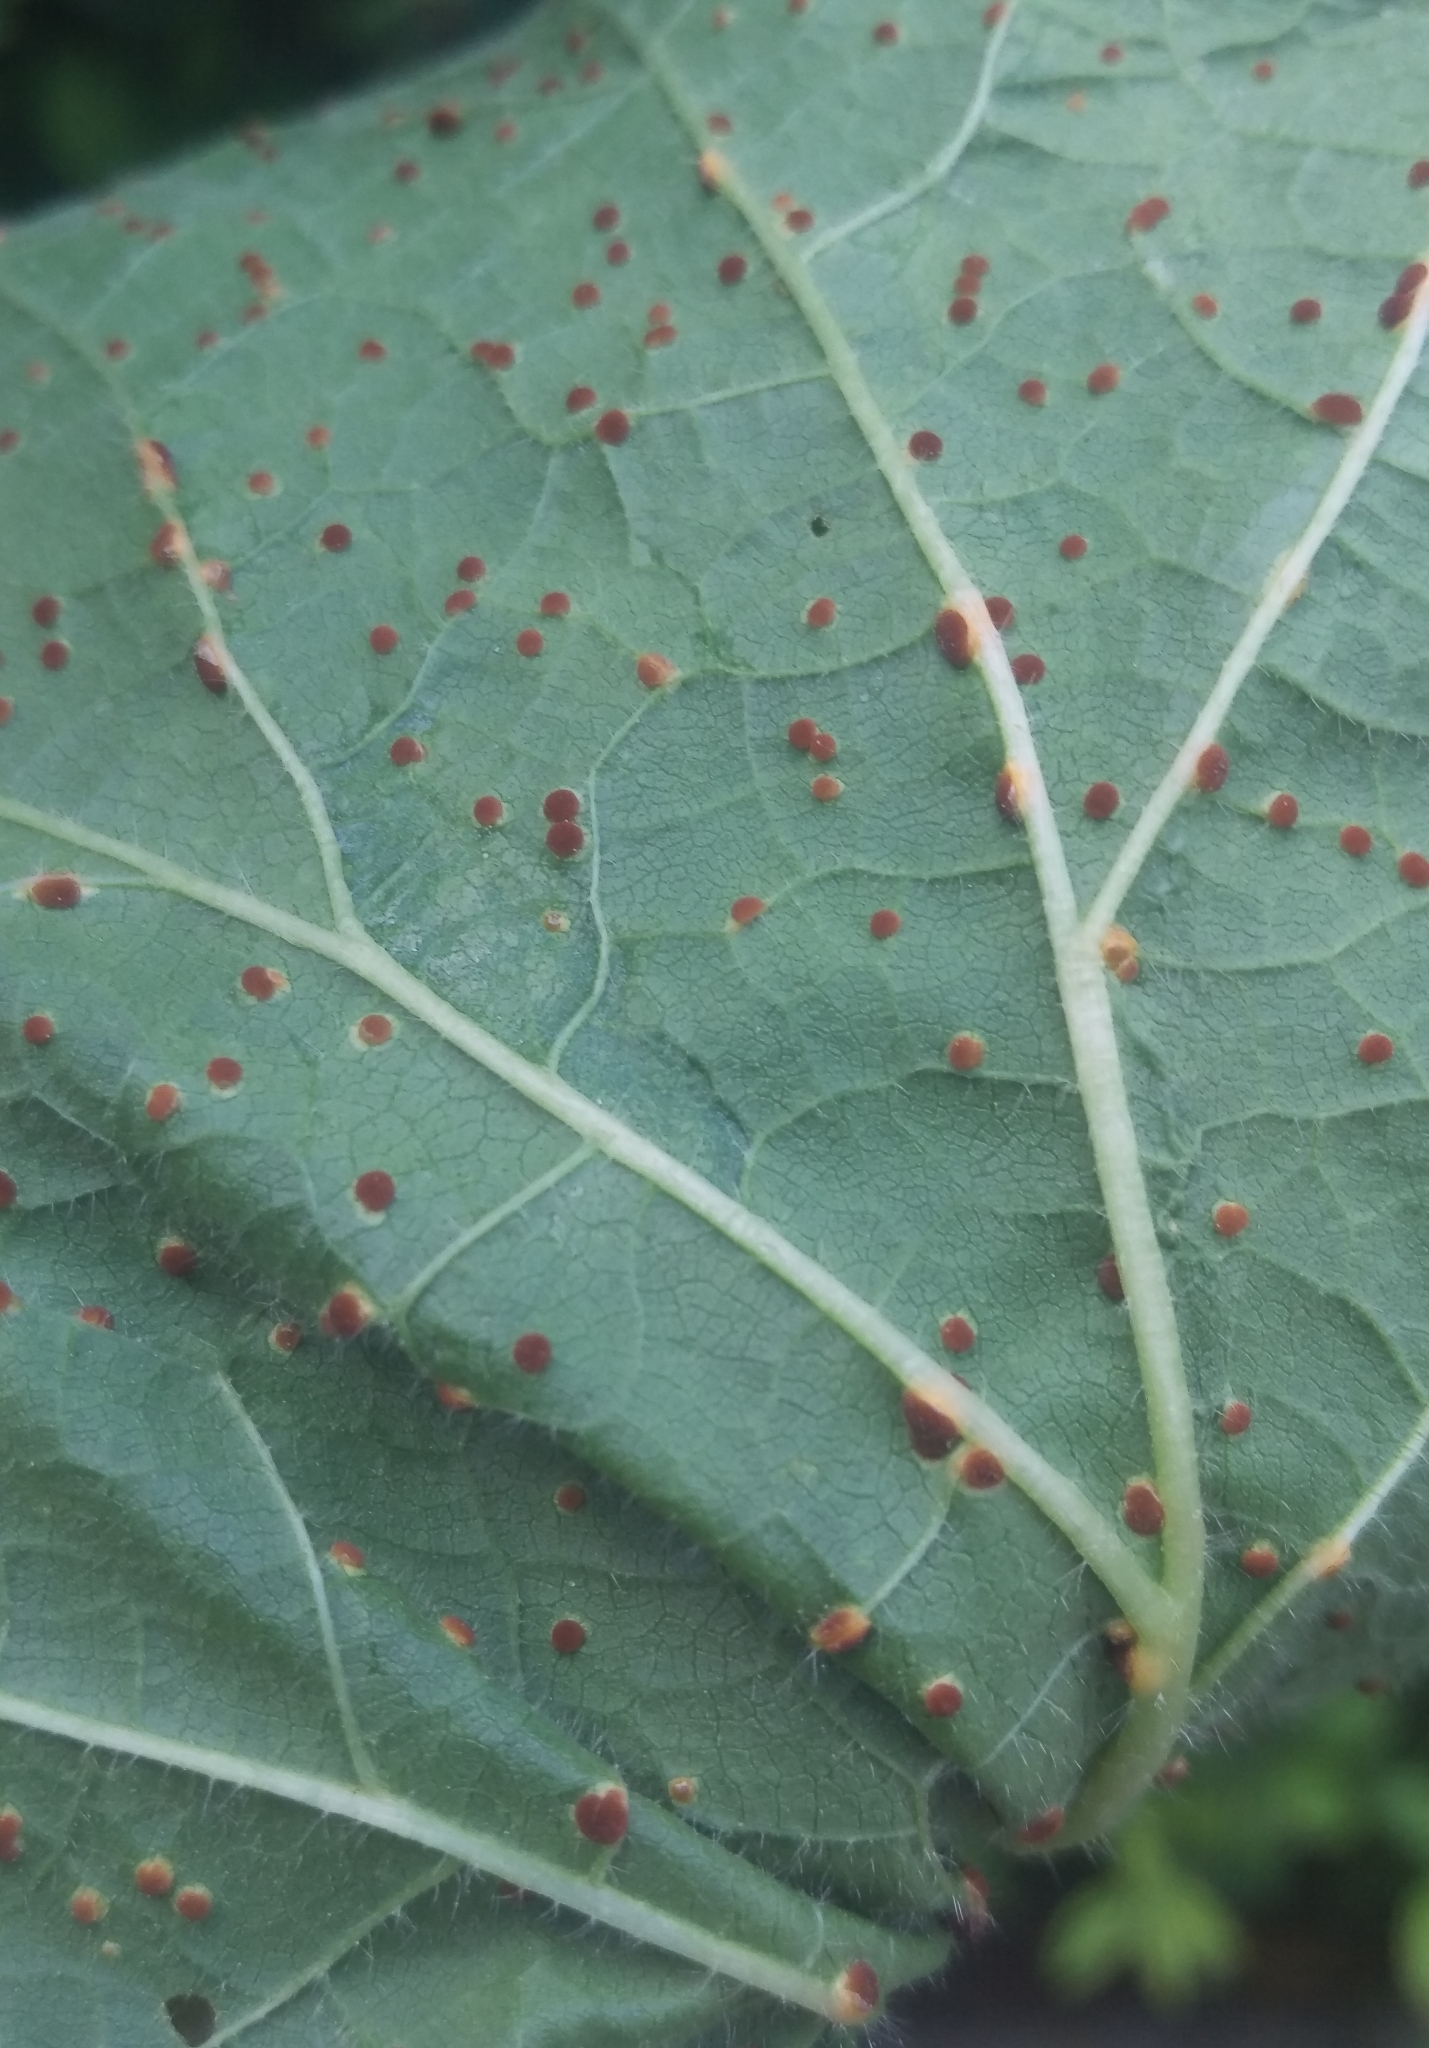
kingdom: Fungi
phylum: Basidiomycota
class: Pucciniomycetes
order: Pucciniales
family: Pucciniaceae
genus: Puccinia
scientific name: Puccinia malvacearum
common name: Hollyhock rust
